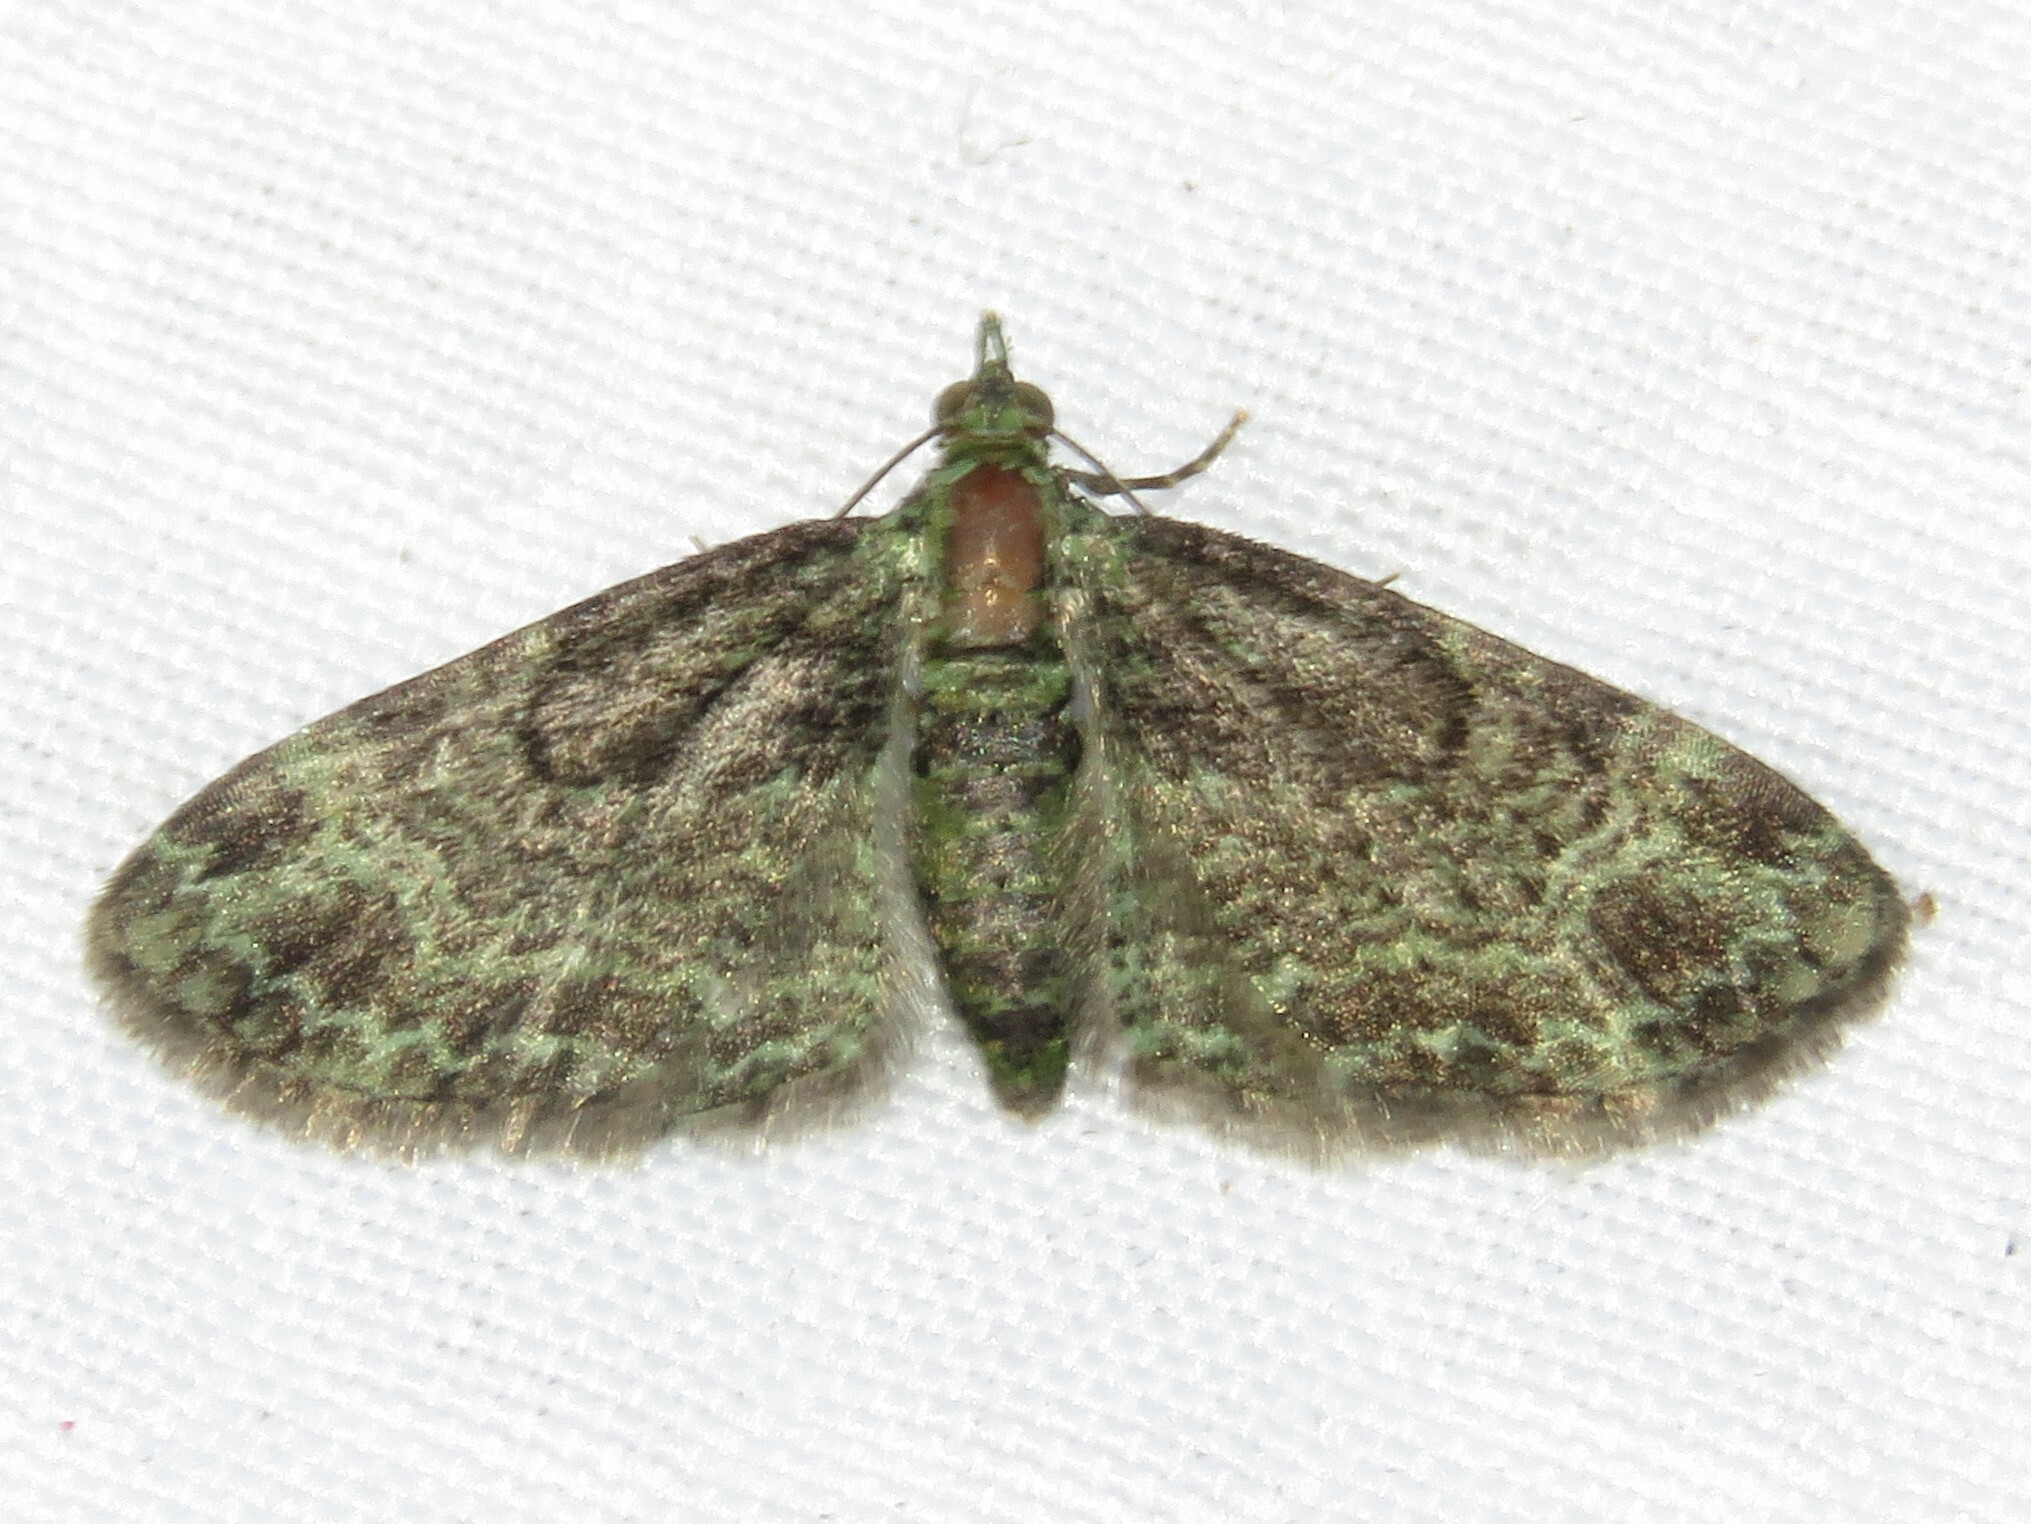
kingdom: Animalia
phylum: Arthropoda
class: Insecta
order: Lepidoptera
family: Geometridae
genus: Pasiphila
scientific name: Pasiphila rectangulata
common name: Green pug
